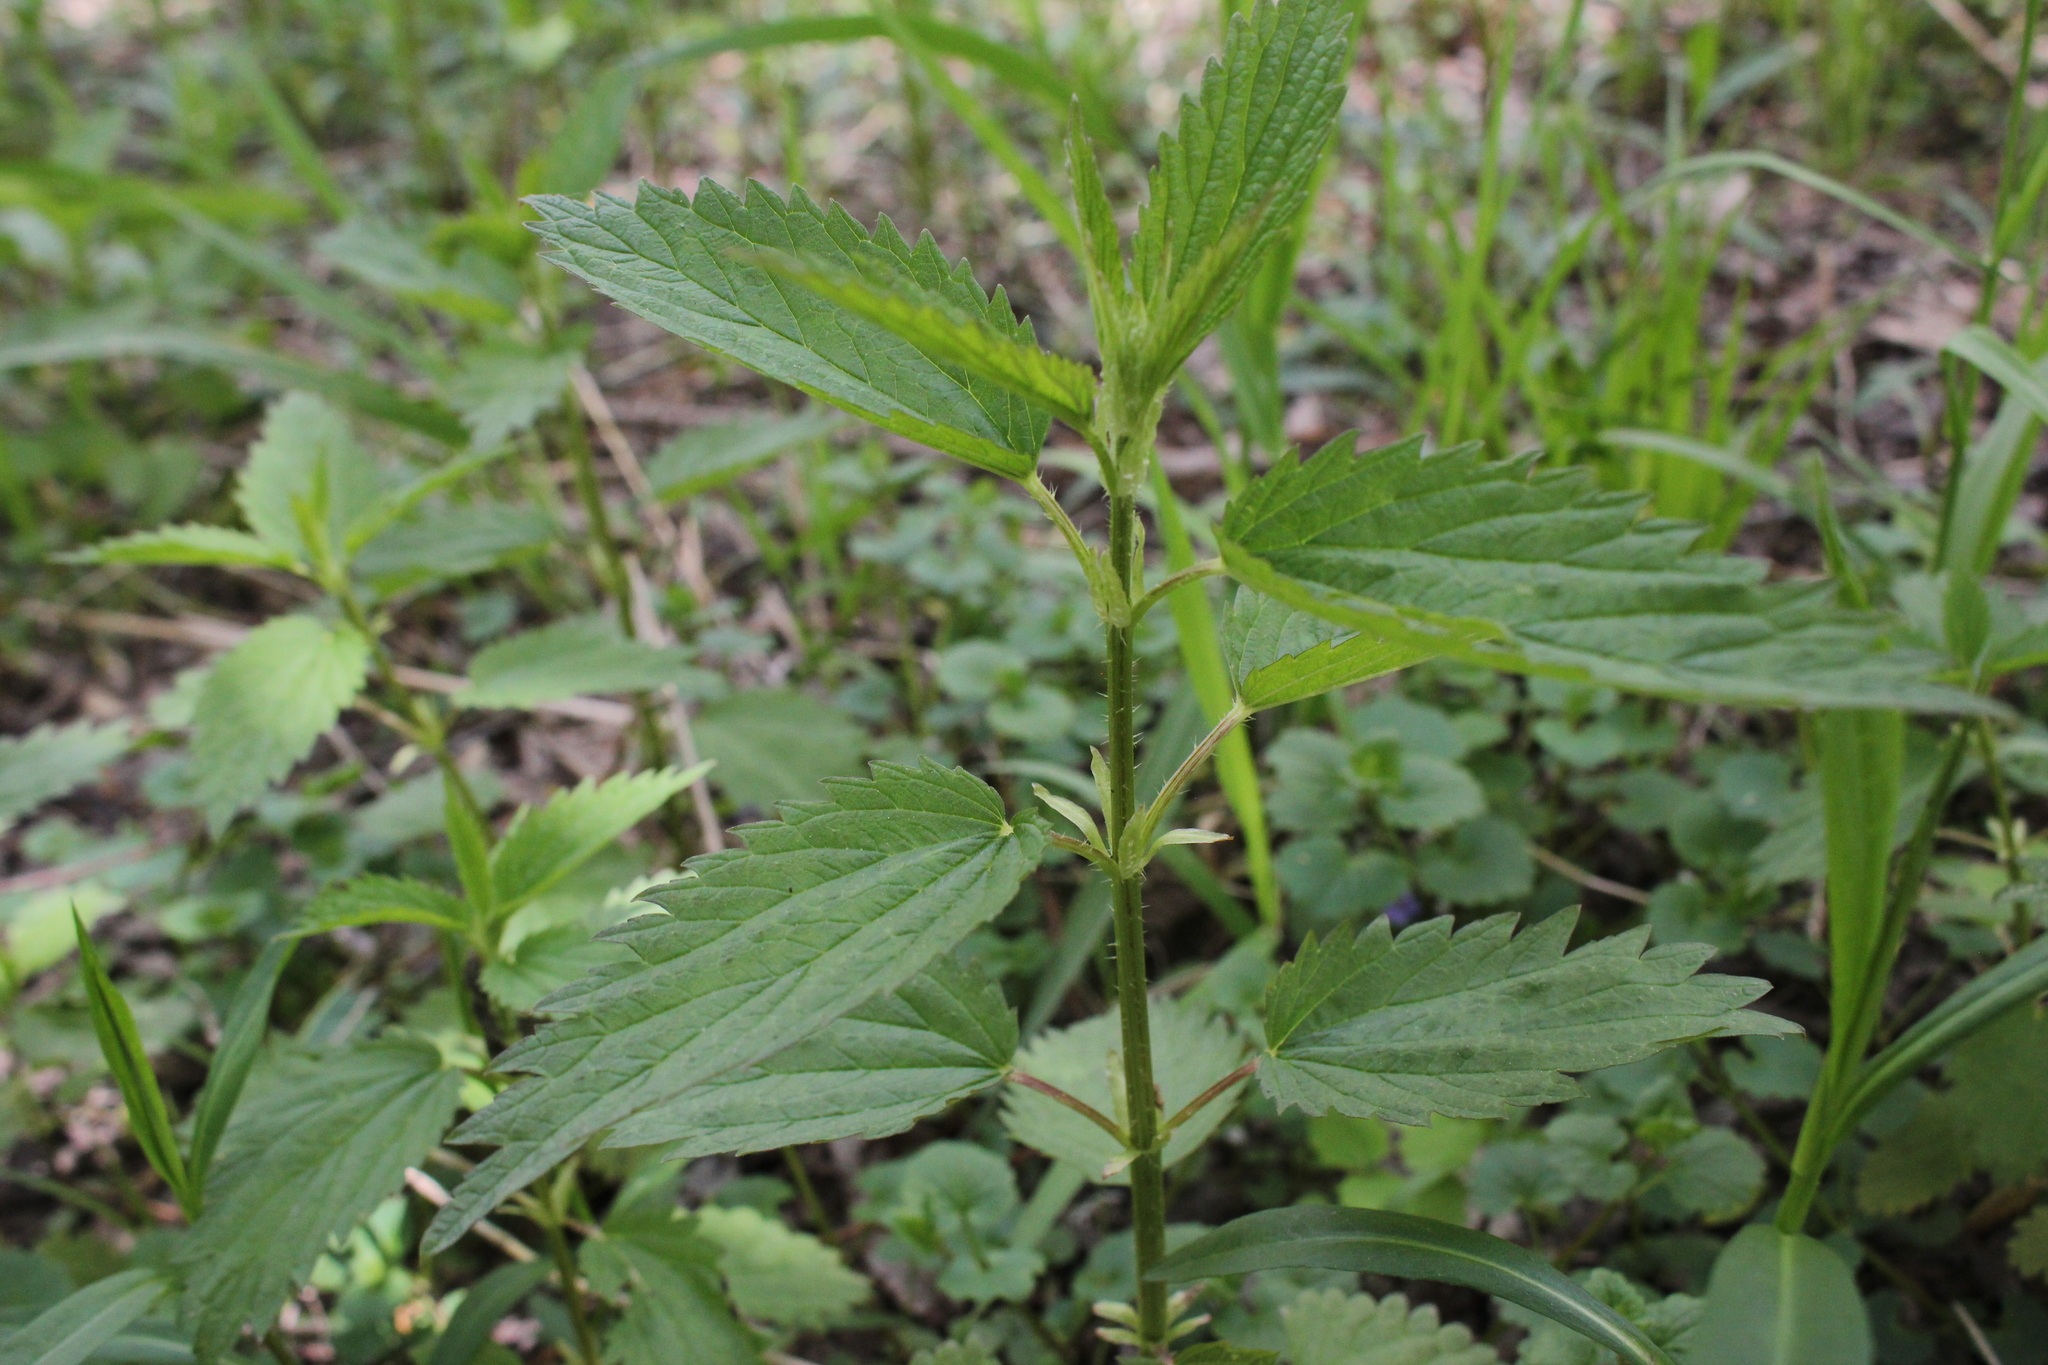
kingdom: Plantae
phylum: Tracheophyta
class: Magnoliopsida
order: Rosales
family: Urticaceae
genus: Urtica
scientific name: Urtica dioica
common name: Common nettle
